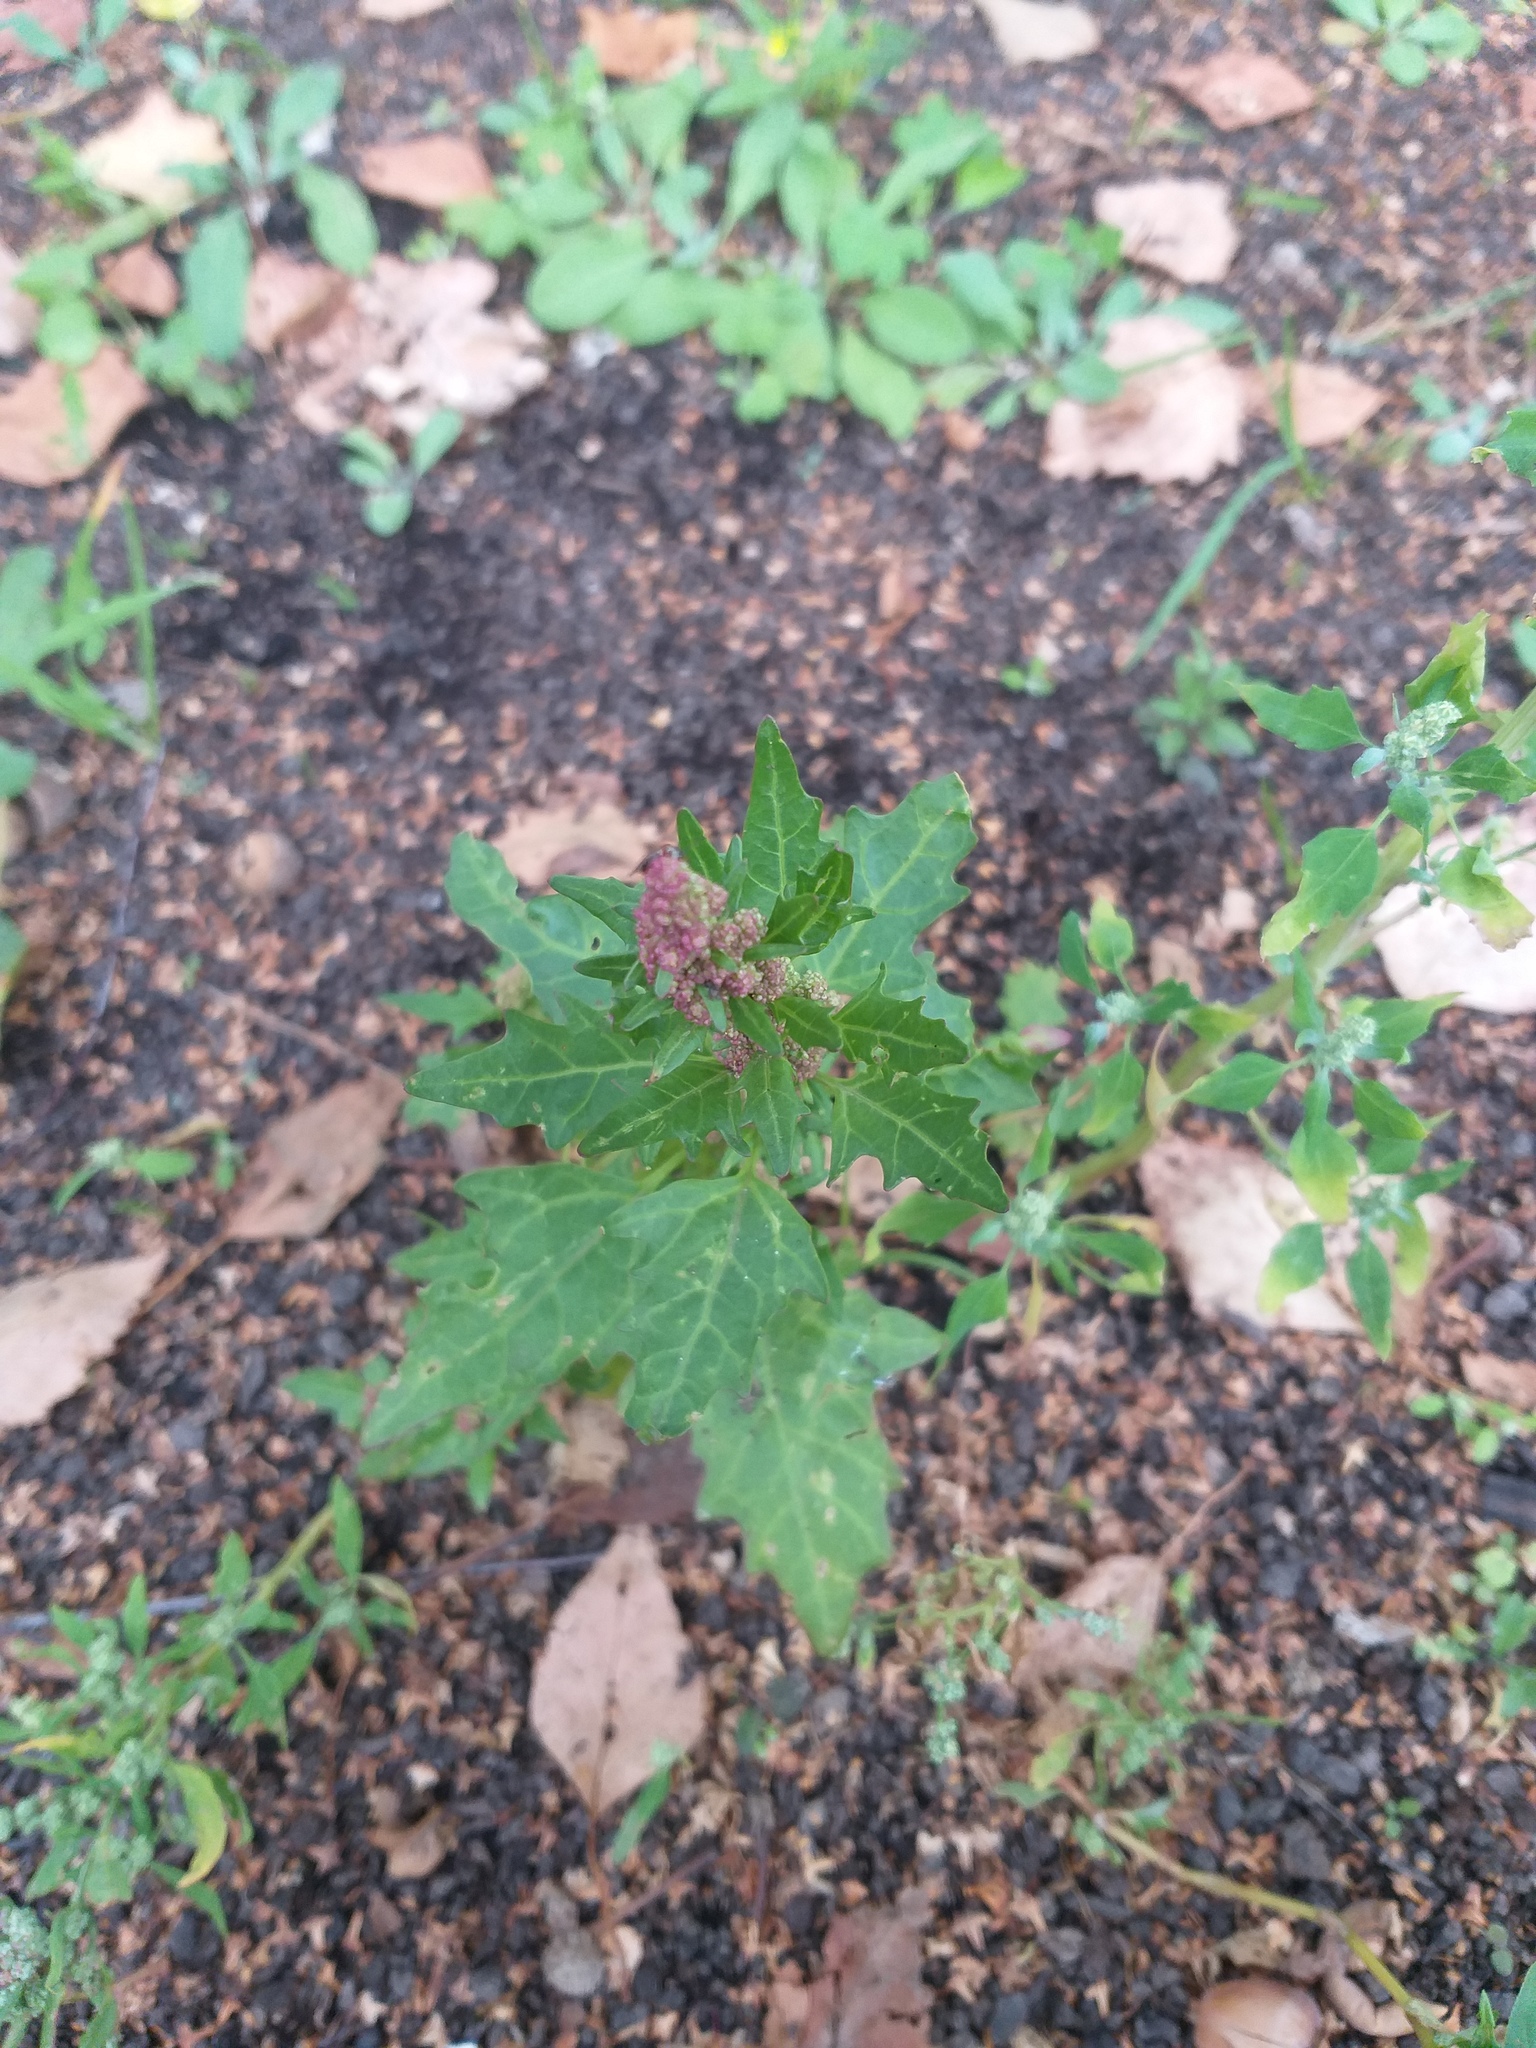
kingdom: Plantae
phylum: Tracheophyta
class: Magnoliopsida
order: Caryophyllales
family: Amaranthaceae
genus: Oxybasis
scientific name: Oxybasis rubra
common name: Red goosefoot
